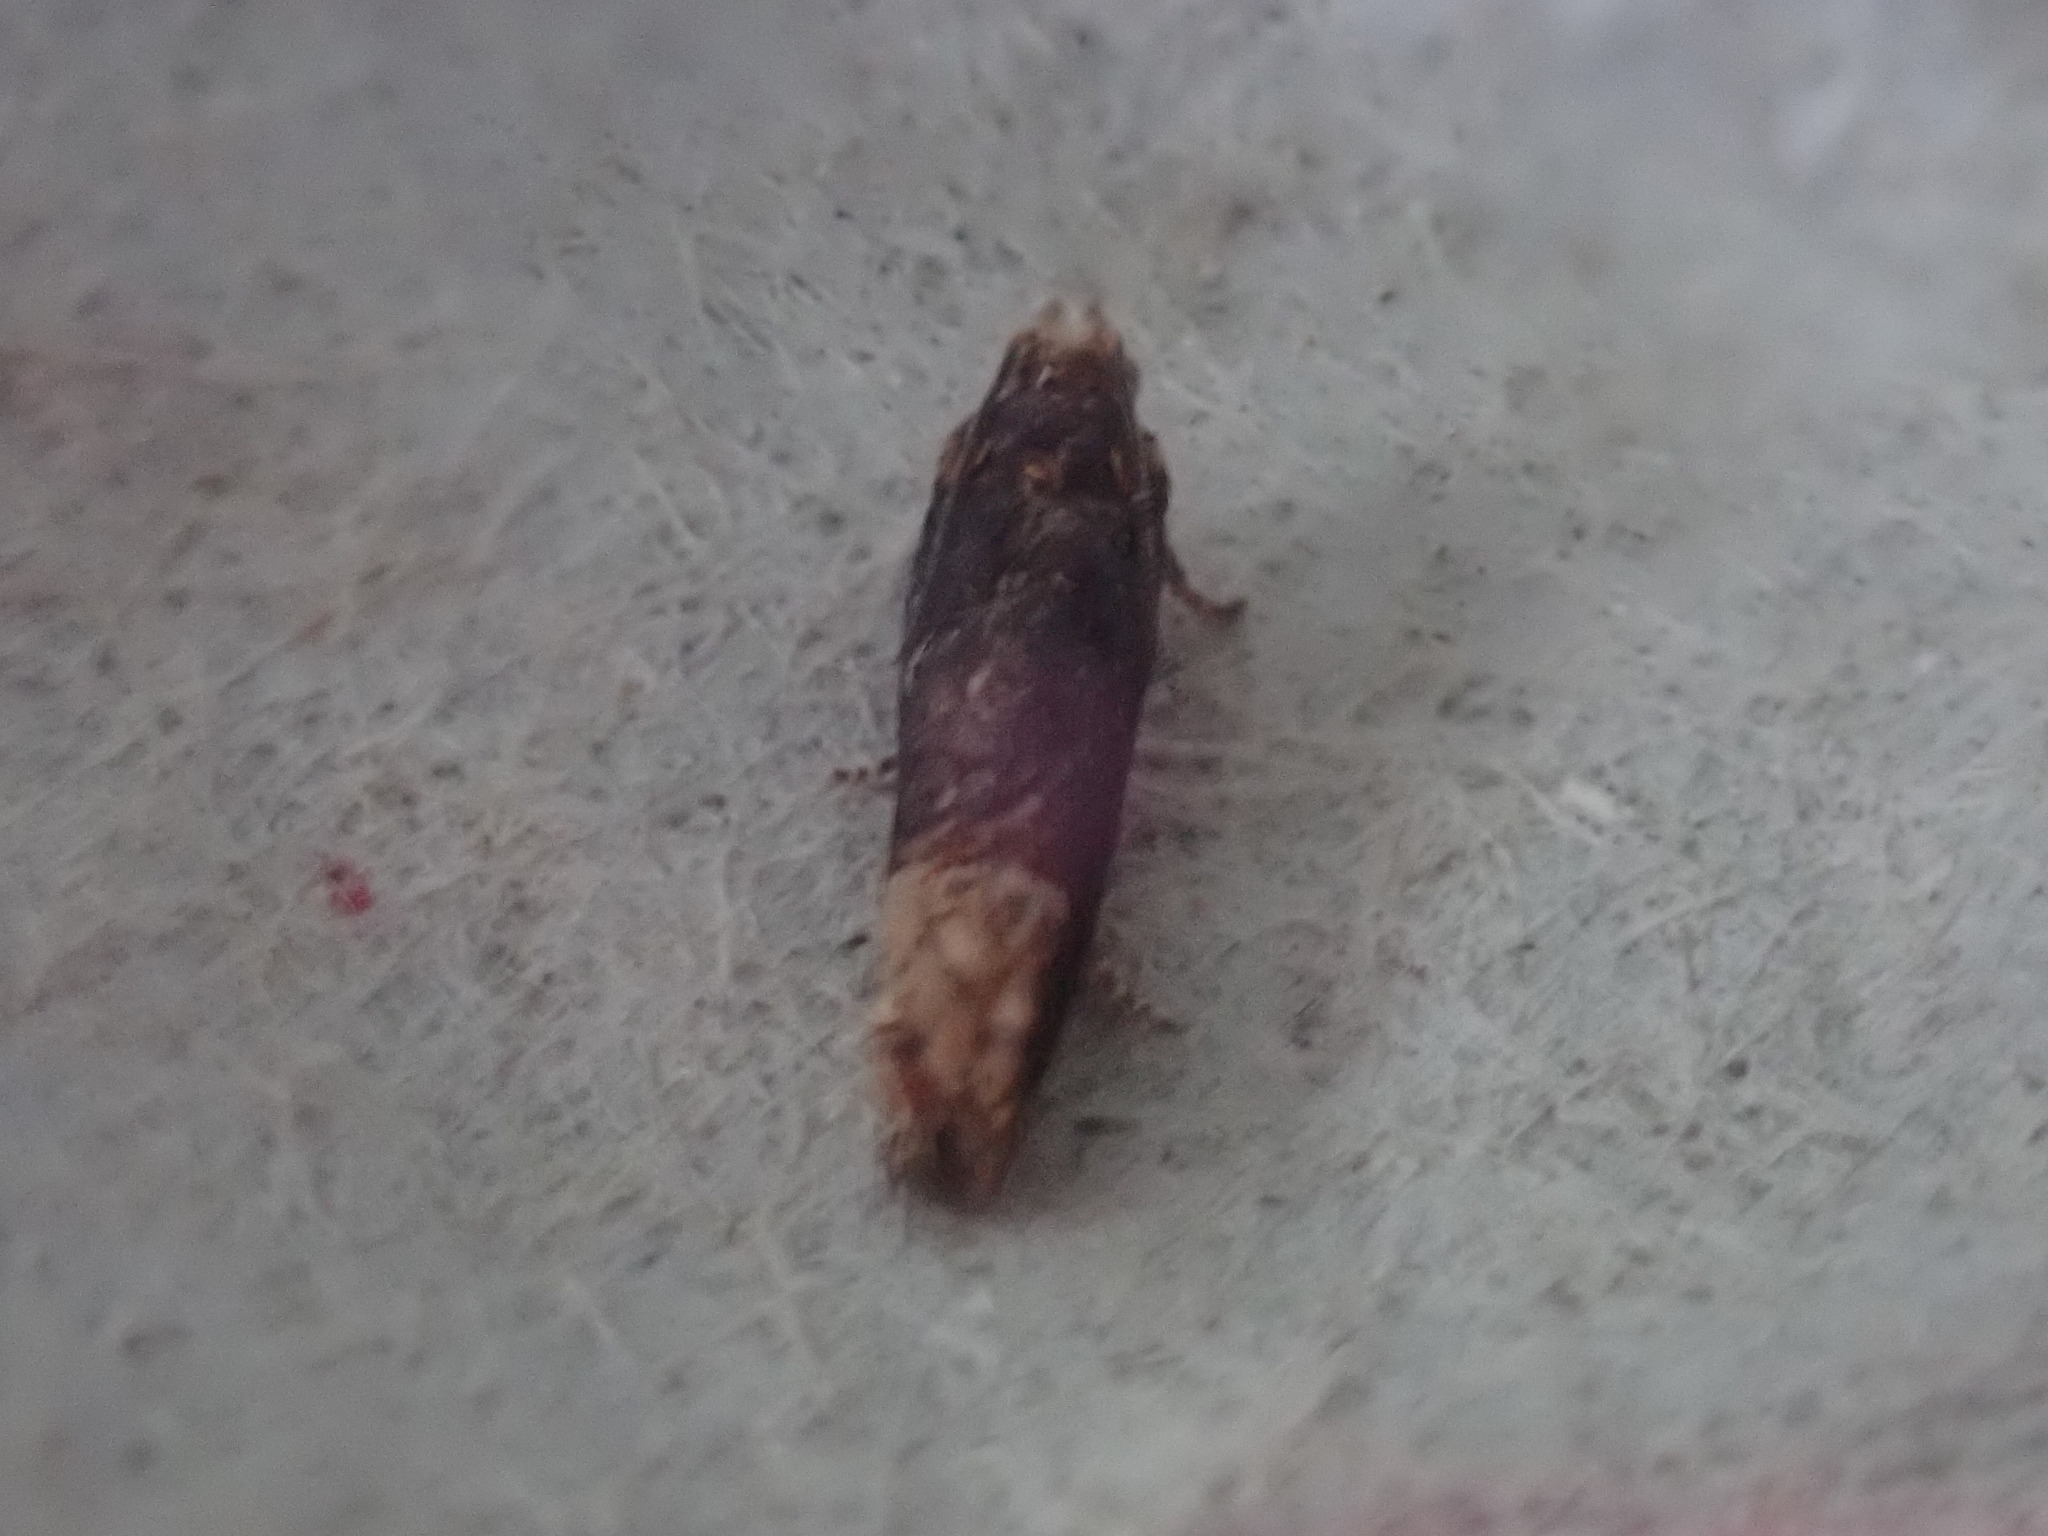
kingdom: Animalia
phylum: Arthropoda
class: Insecta
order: Lepidoptera
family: Tortricidae
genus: Eucosma
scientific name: Eucosma ochroterminana
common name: Buff-tipped eucosma moth
